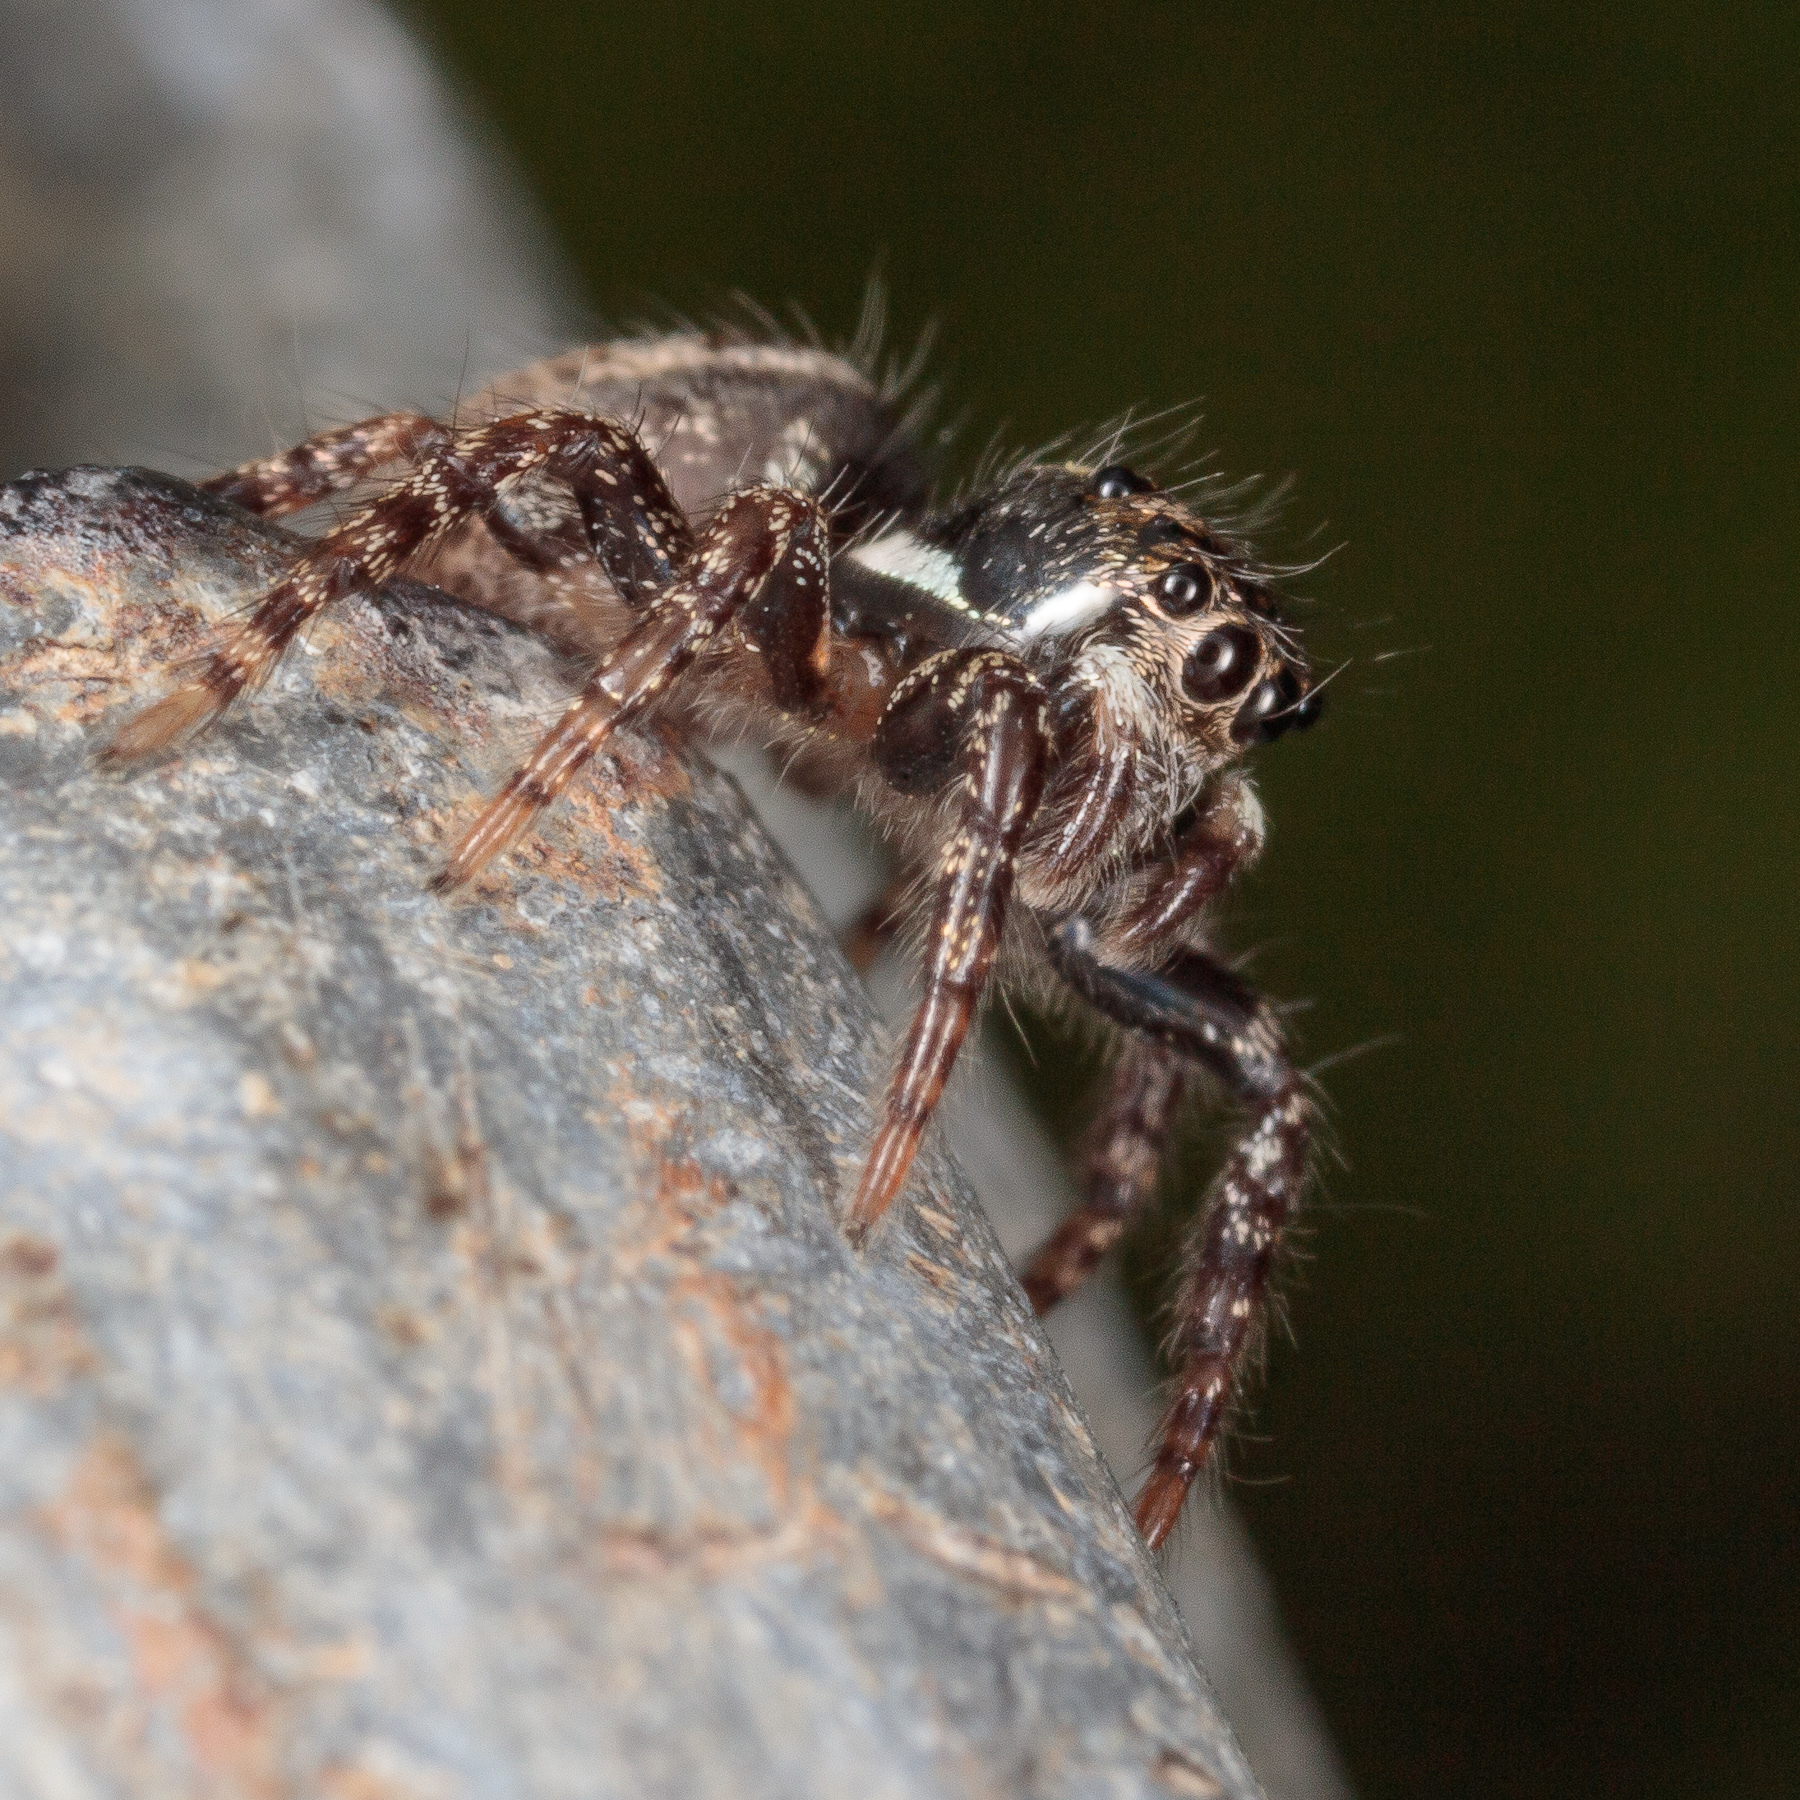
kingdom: Animalia
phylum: Arthropoda
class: Arachnida
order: Araneae
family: Salticidae
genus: Anasaitis
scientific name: Anasaitis canosa
